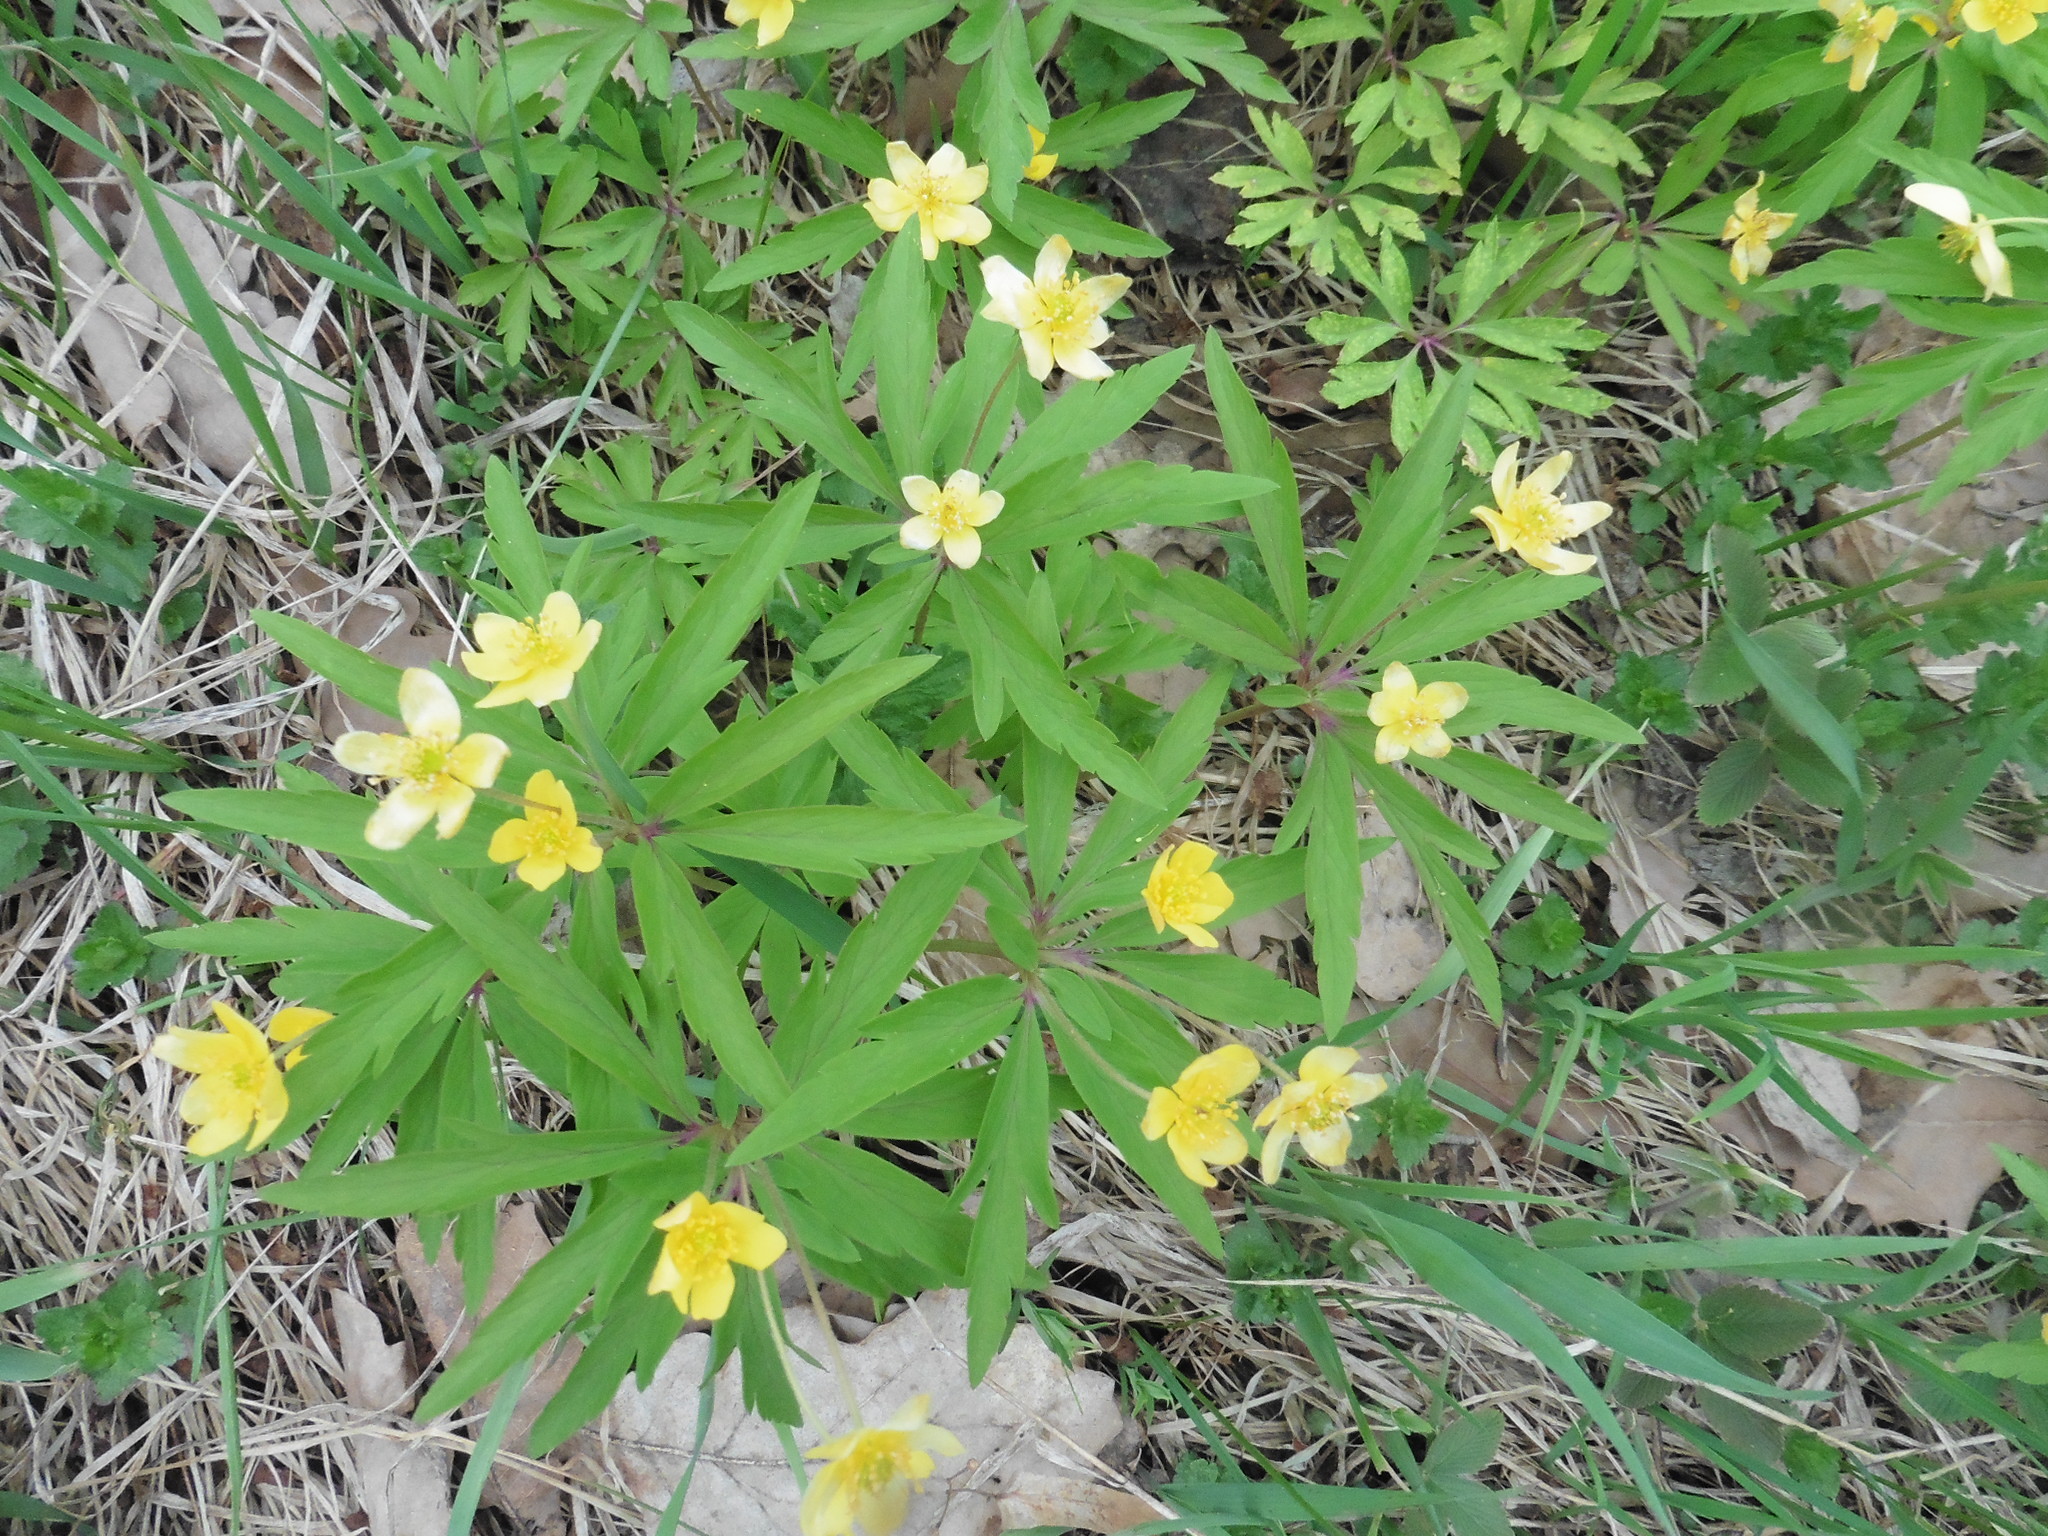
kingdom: Plantae
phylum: Tracheophyta
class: Magnoliopsida
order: Ranunculales
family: Ranunculaceae
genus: Anemone
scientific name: Anemone ranunculoides
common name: Yellow anemone
